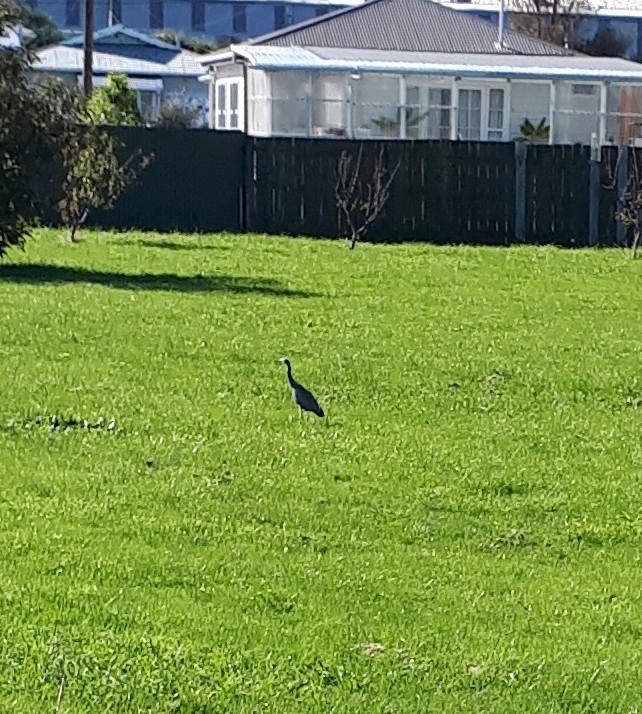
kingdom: Animalia
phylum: Chordata
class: Aves
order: Pelecaniformes
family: Ardeidae
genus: Egretta
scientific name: Egretta novaehollandiae
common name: White-faced heron
